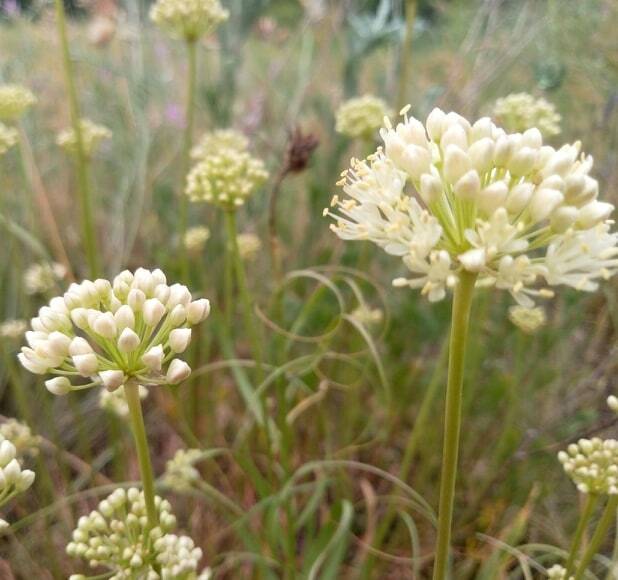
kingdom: Plantae
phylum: Tracheophyta
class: Liliopsida
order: Asparagales
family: Amaryllidaceae
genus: Allium
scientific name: Allium flavescens
